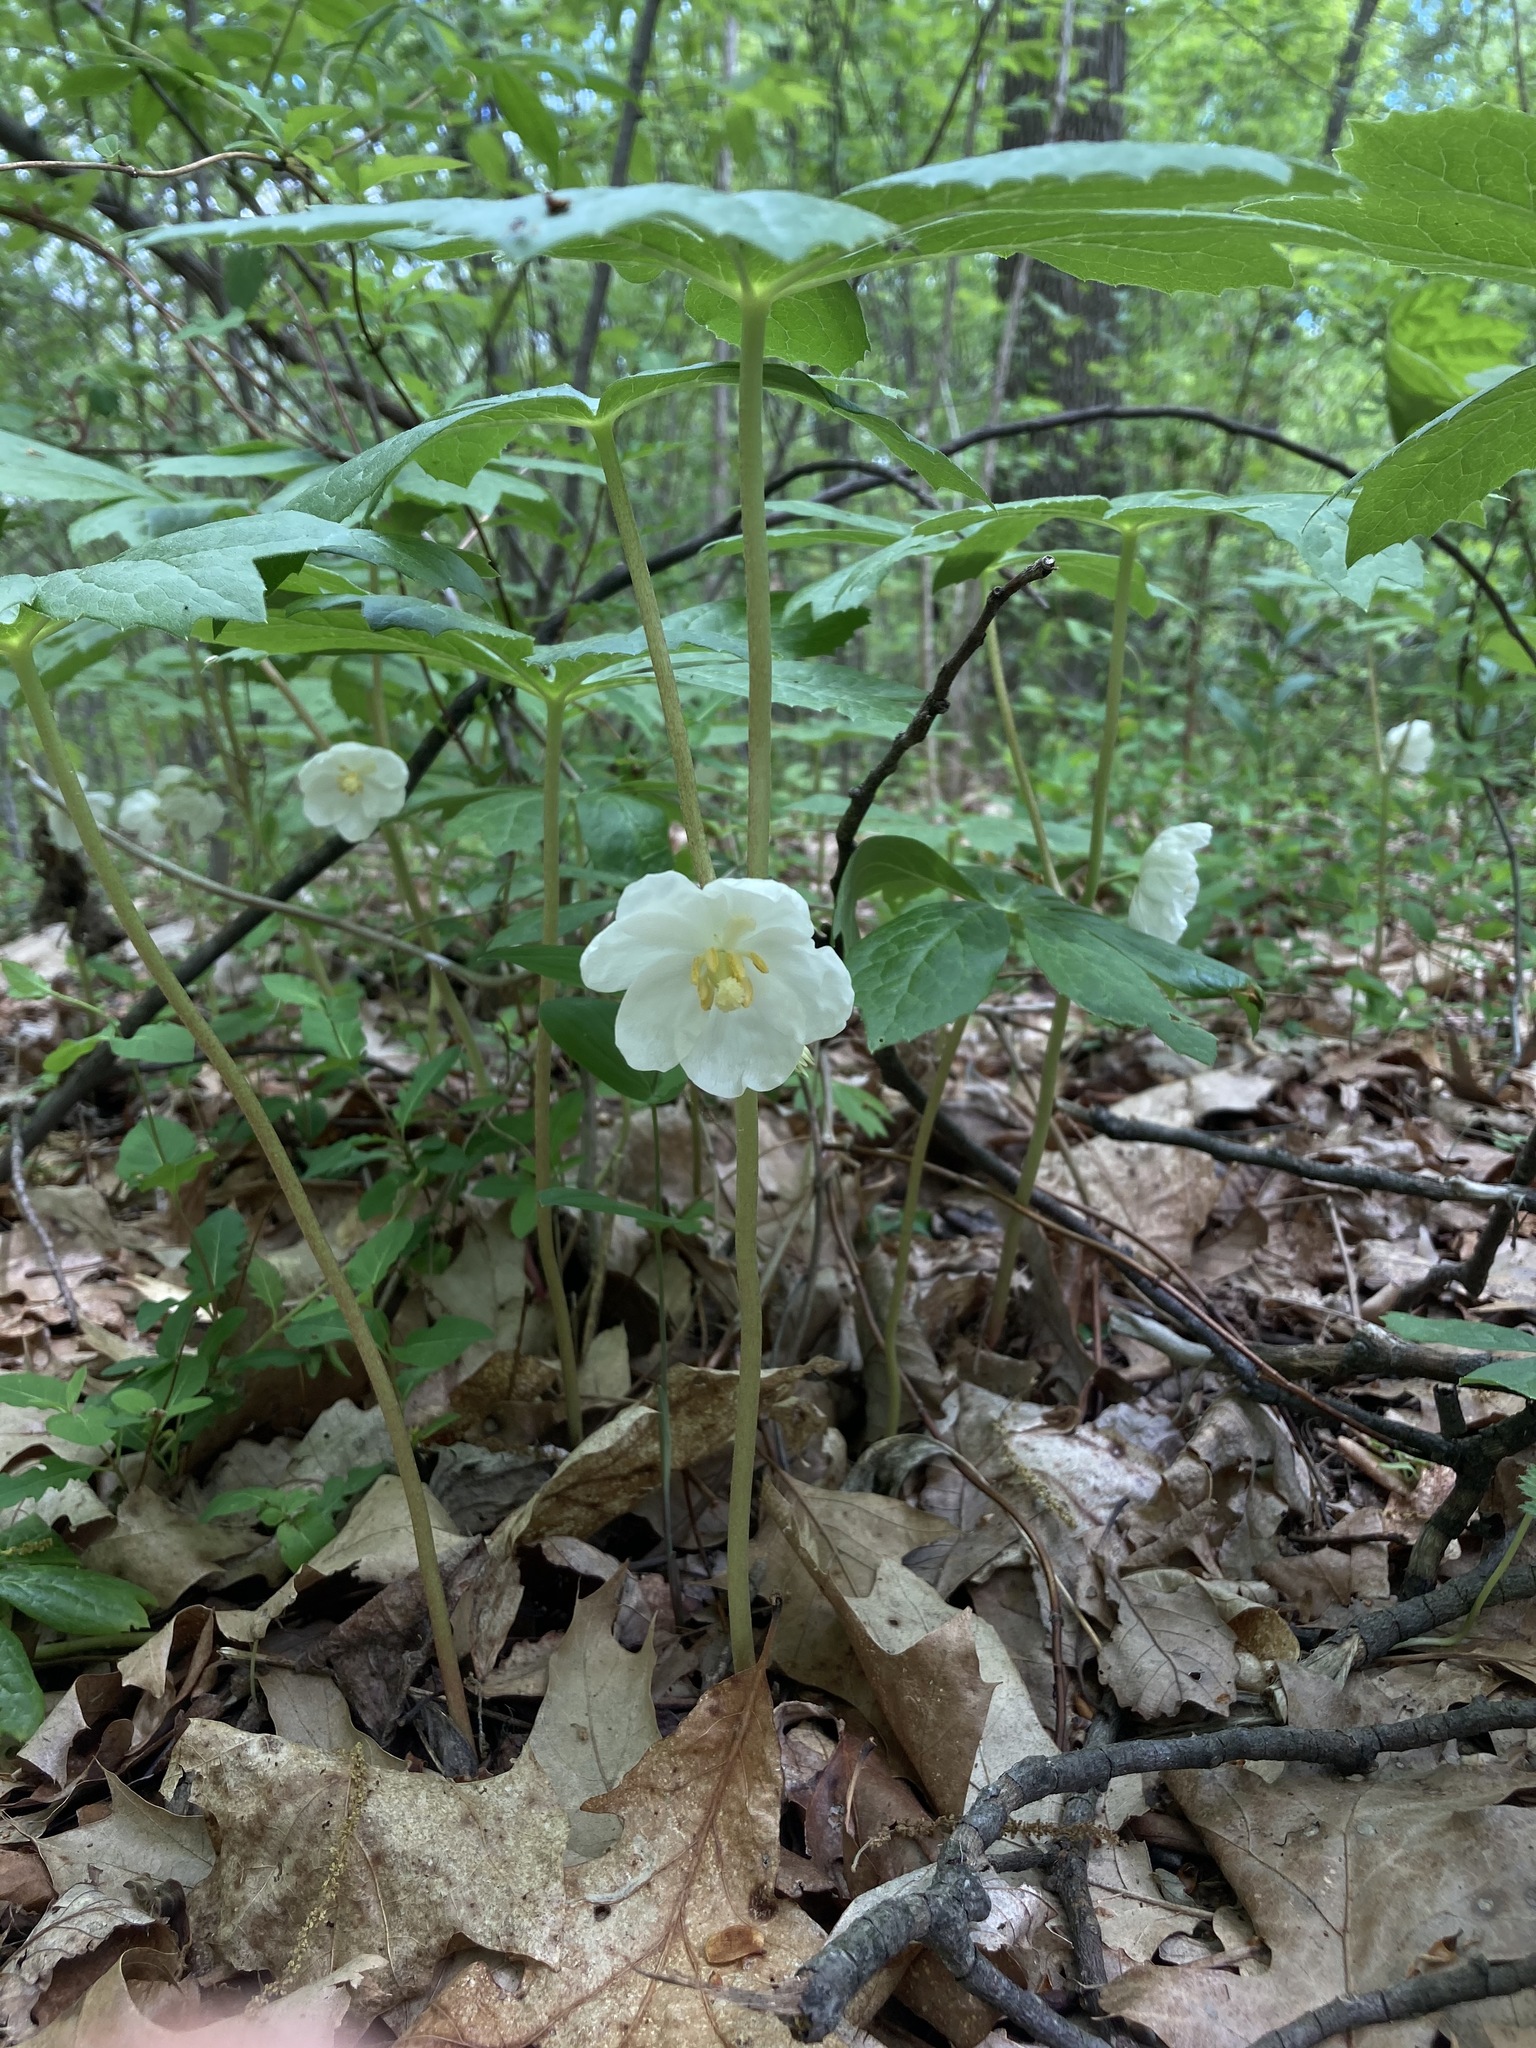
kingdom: Plantae
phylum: Tracheophyta
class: Magnoliopsida
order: Ranunculales
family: Berberidaceae
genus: Podophyllum
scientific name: Podophyllum peltatum
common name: Wild mandrake
